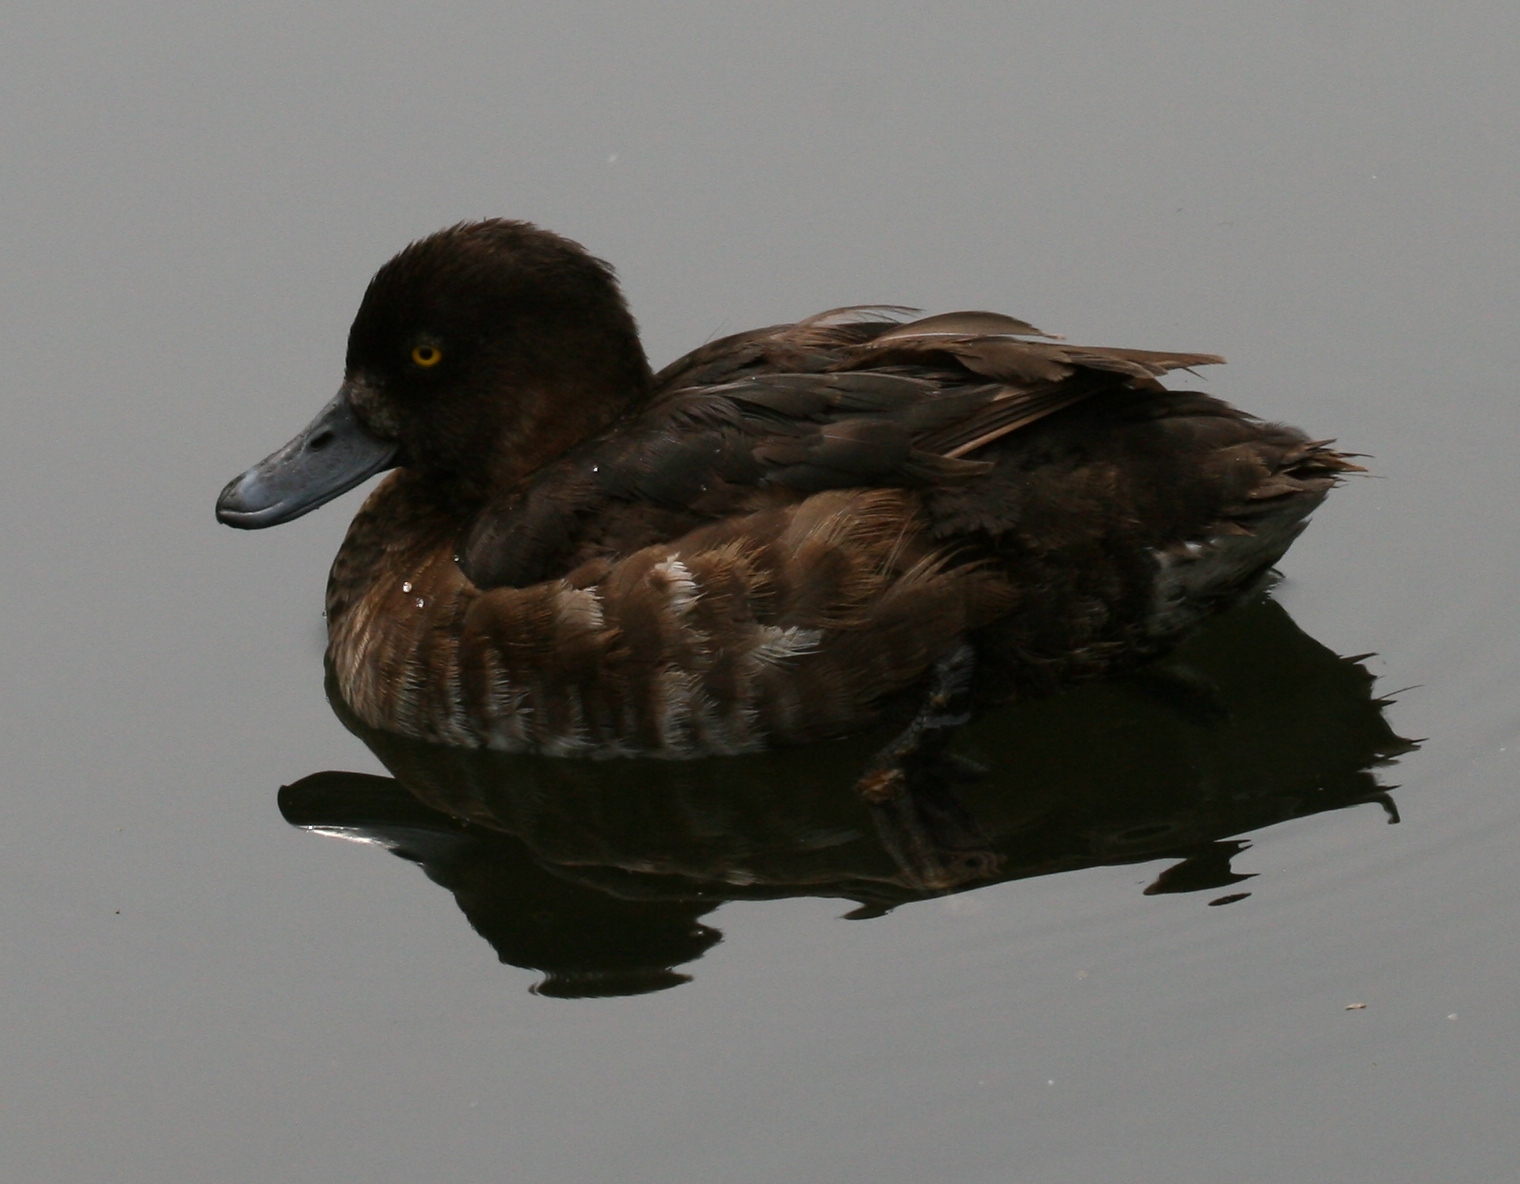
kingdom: Animalia
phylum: Chordata
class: Aves
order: Anseriformes
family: Anatidae
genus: Aythya
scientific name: Aythya fuligula
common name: Tufted duck
